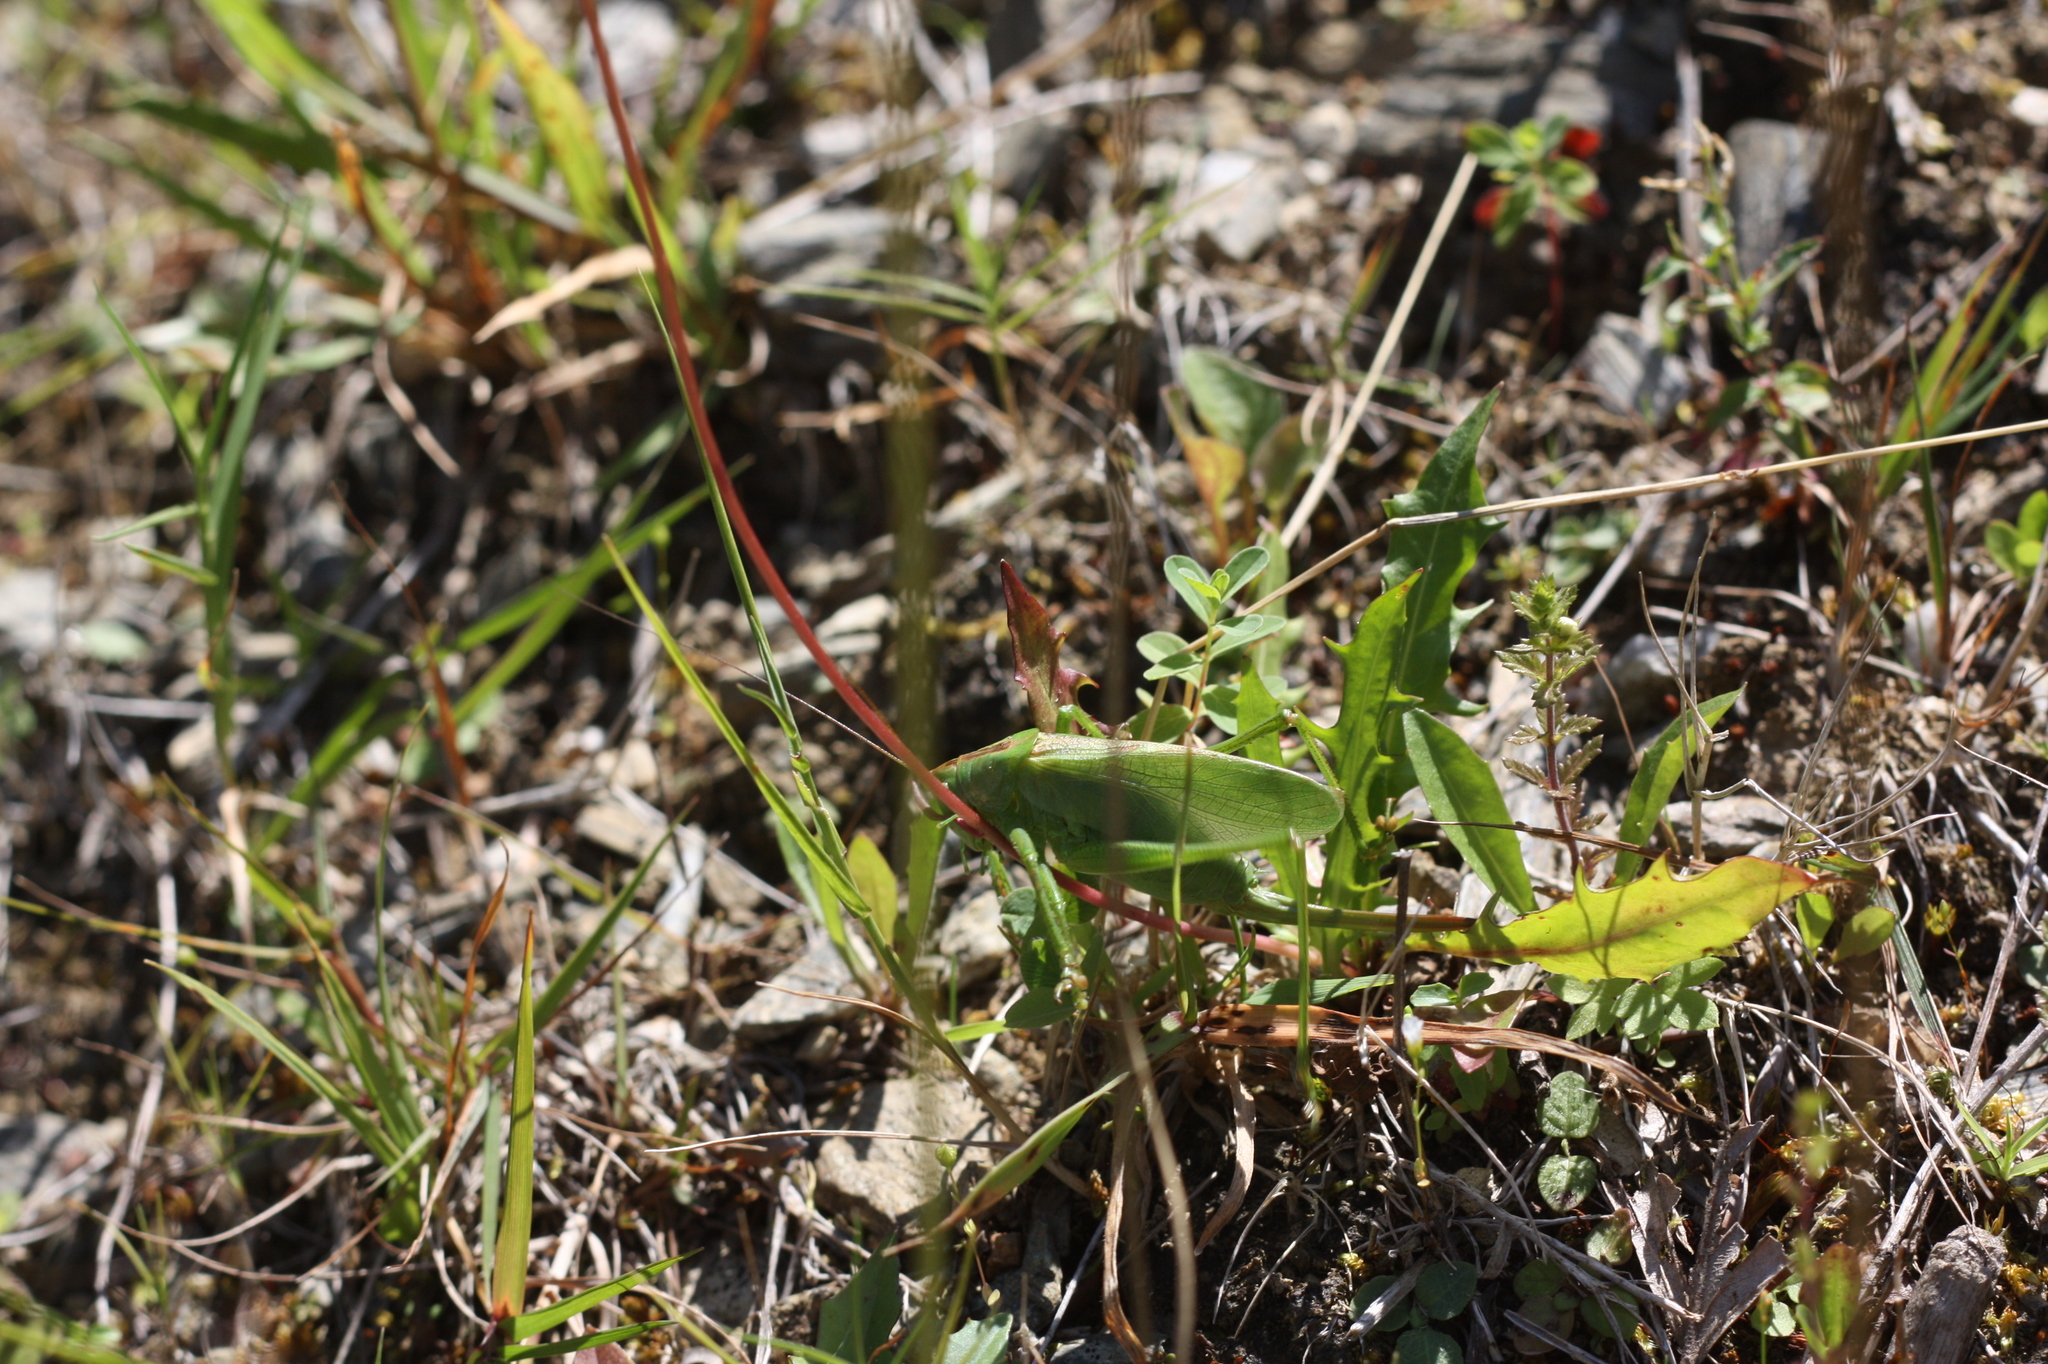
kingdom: Animalia
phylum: Arthropoda
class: Insecta
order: Orthoptera
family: Tettigoniidae
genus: Tettigonia
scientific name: Tettigonia cantans
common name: Upland green bush-cricket
